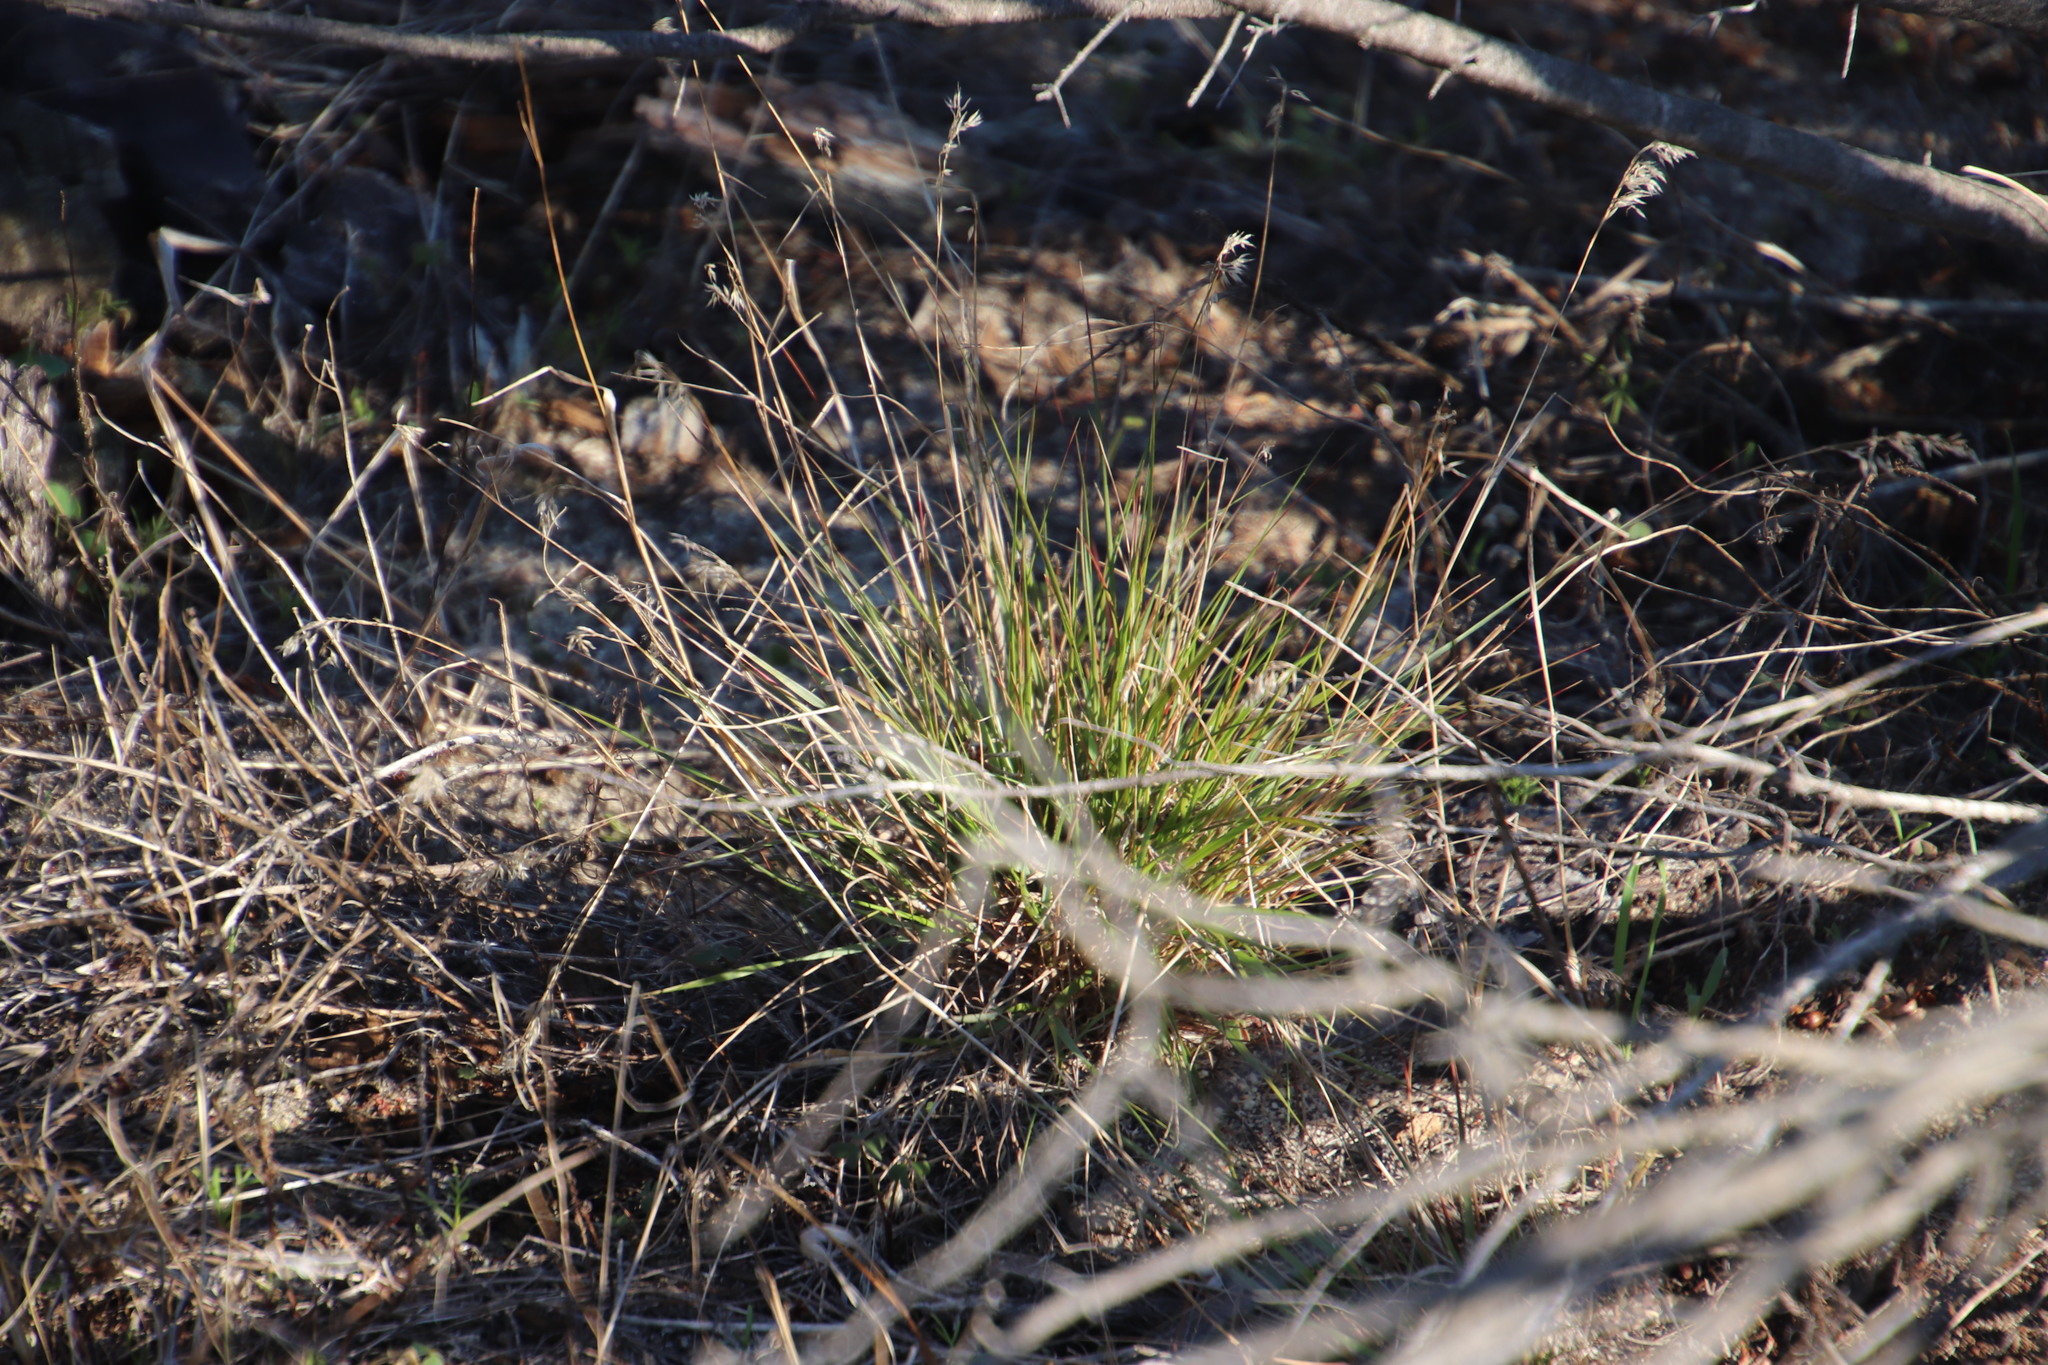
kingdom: Plantae
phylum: Tracheophyta
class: Liliopsida
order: Poales
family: Poaceae
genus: Pentameris
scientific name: Pentameris pallida
